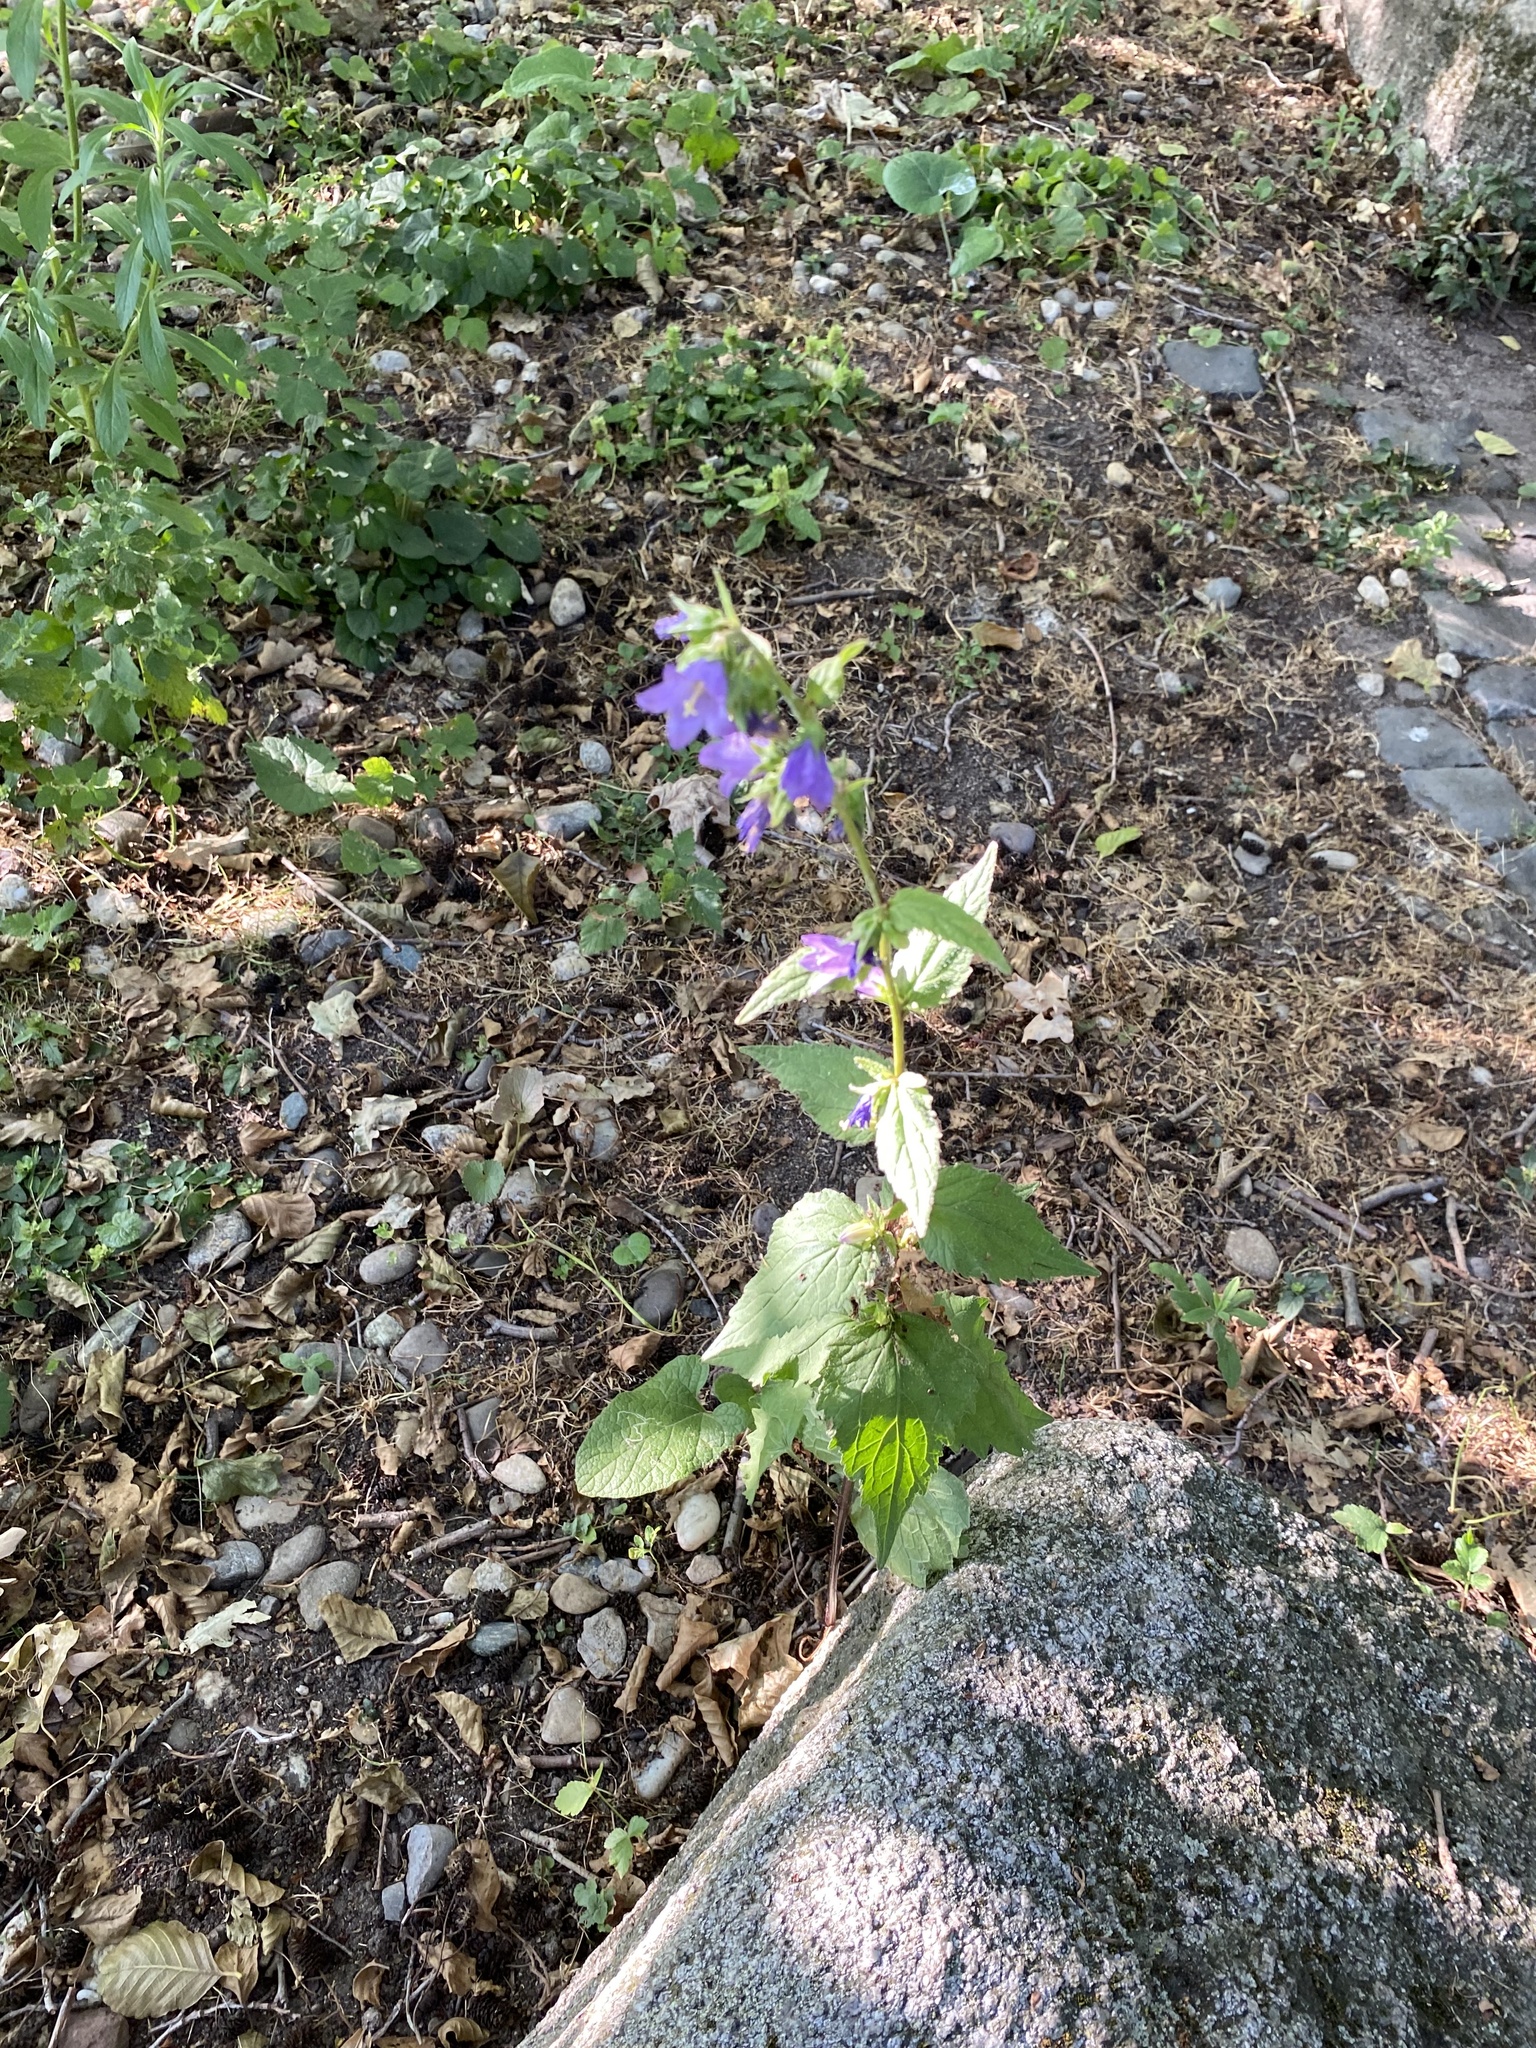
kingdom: Plantae
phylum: Tracheophyta
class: Magnoliopsida
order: Asterales
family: Campanulaceae
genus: Campanula
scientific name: Campanula trachelium
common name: Nettle-leaved bellflower
